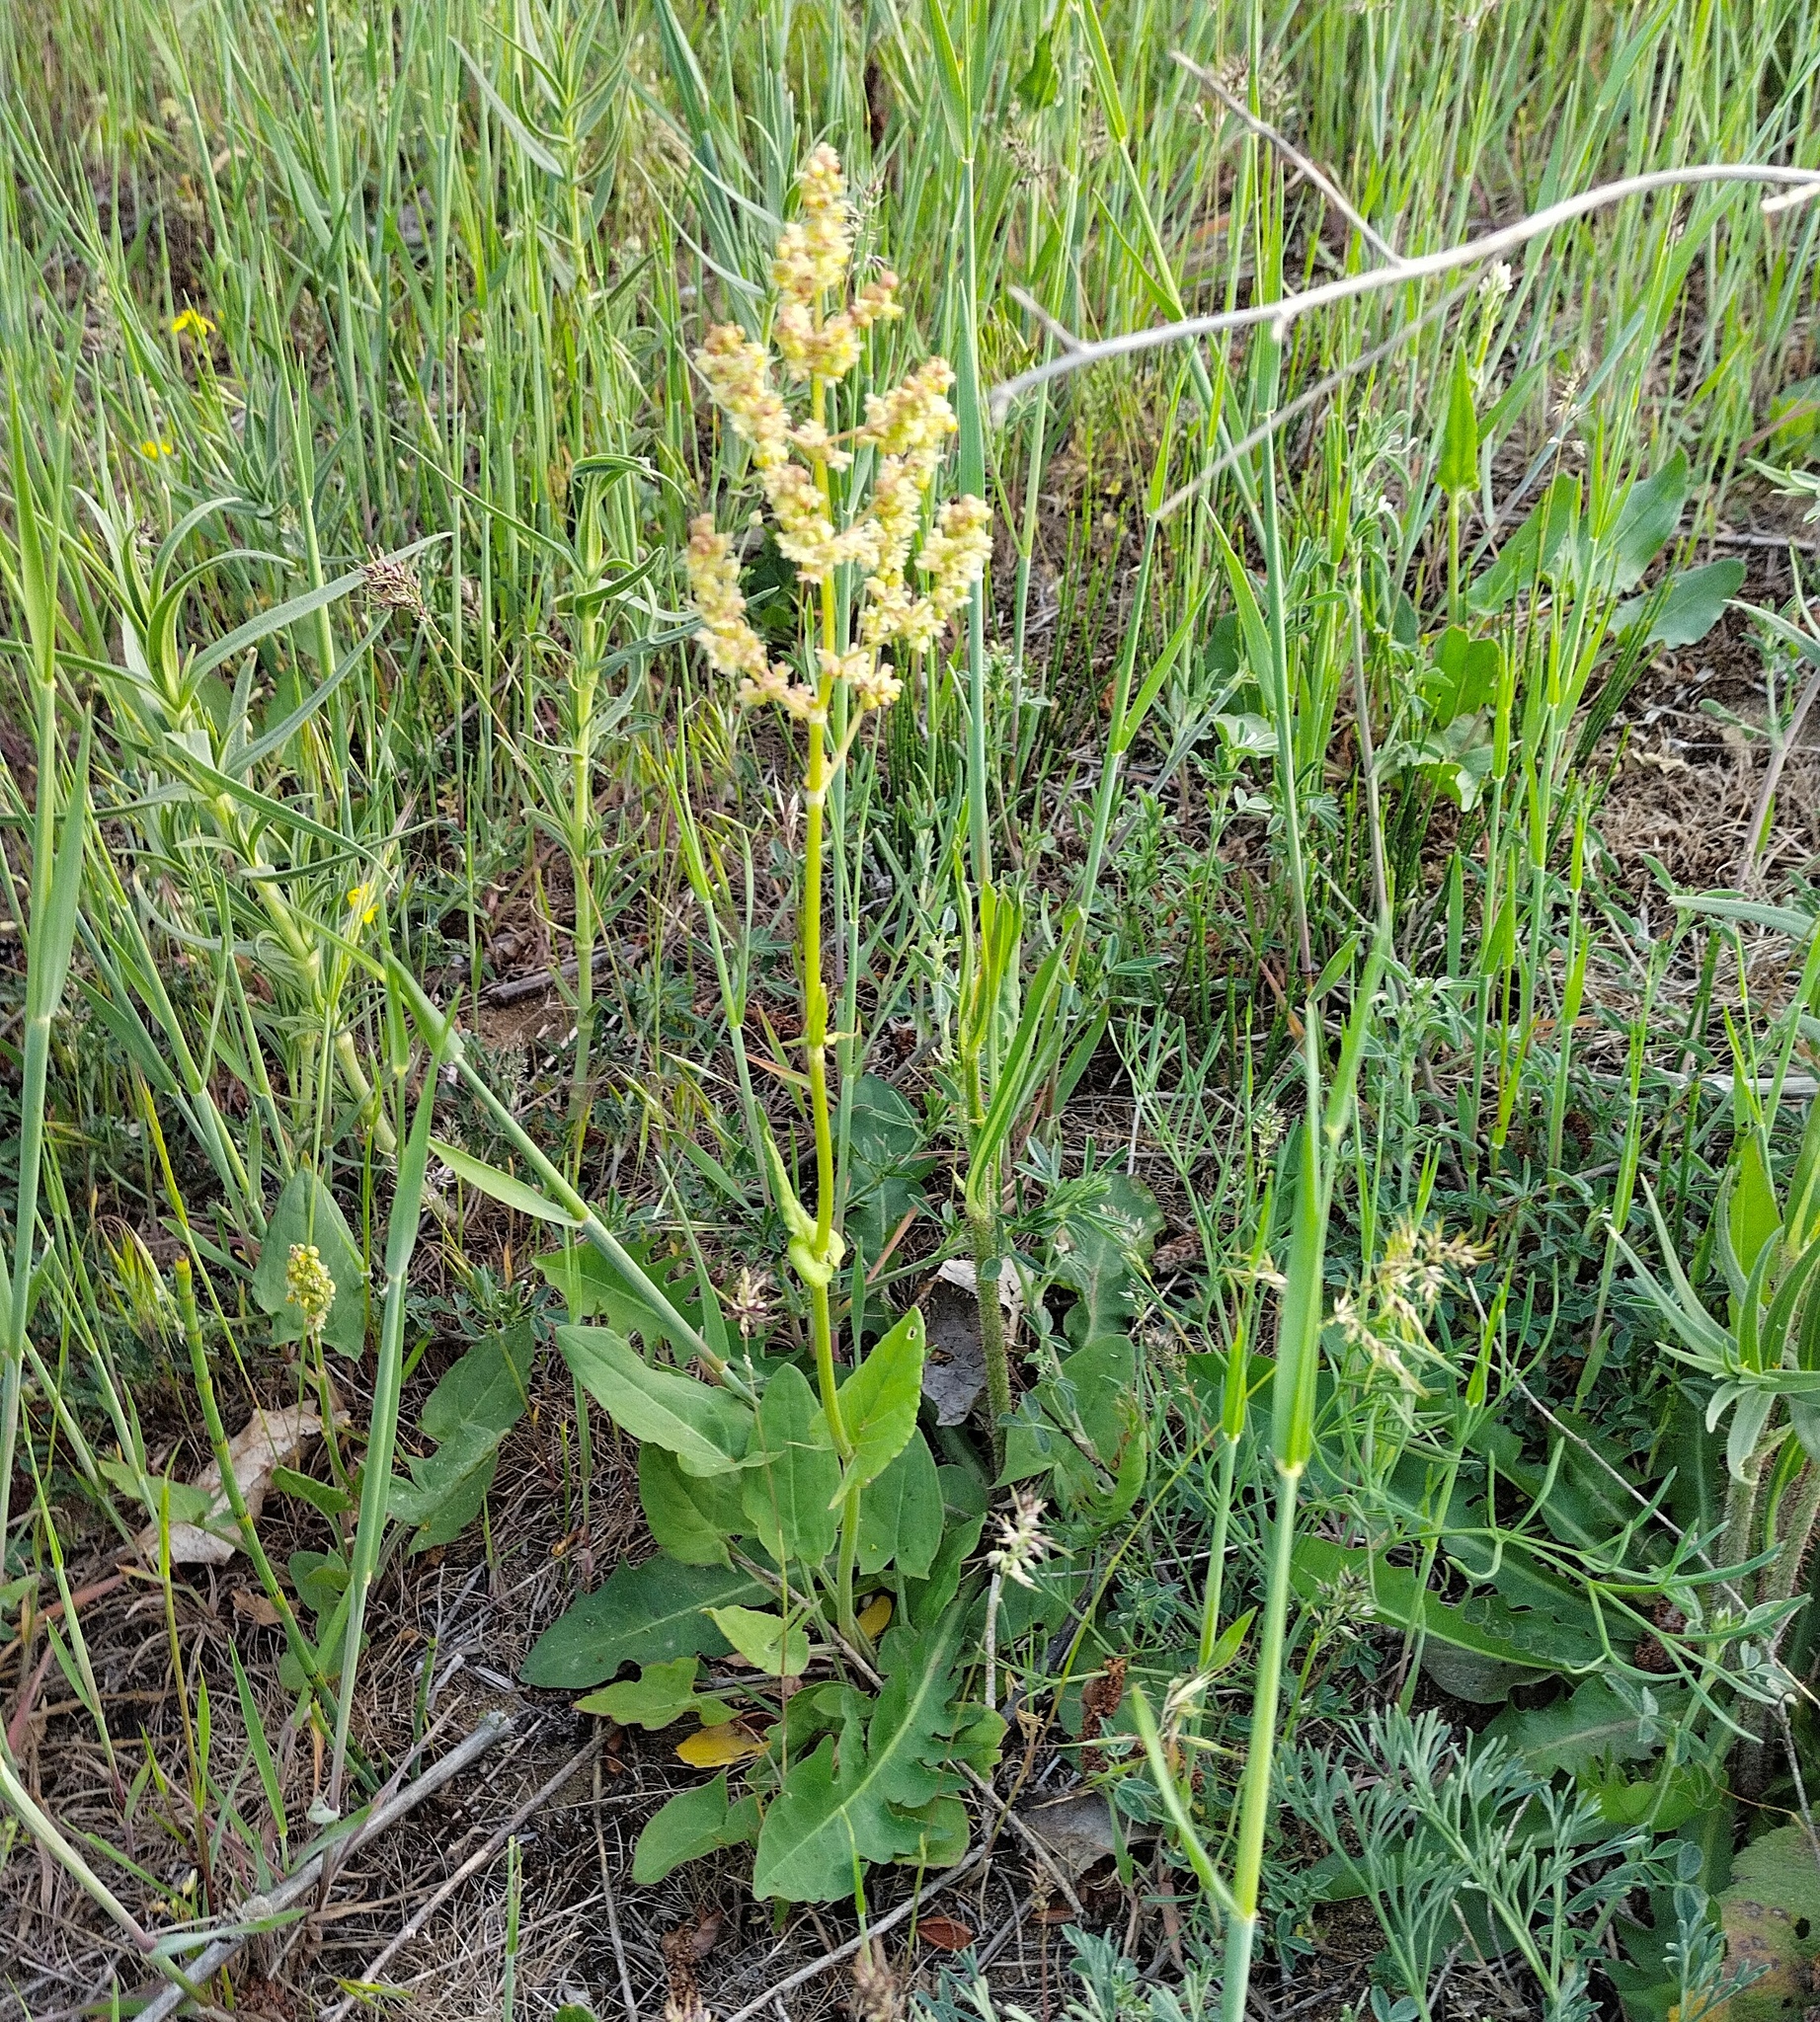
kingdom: Plantae
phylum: Tracheophyta
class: Magnoliopsida
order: Caryophyllales
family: Polygonaceae
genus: Rumex
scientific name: Rumex tuberosus
